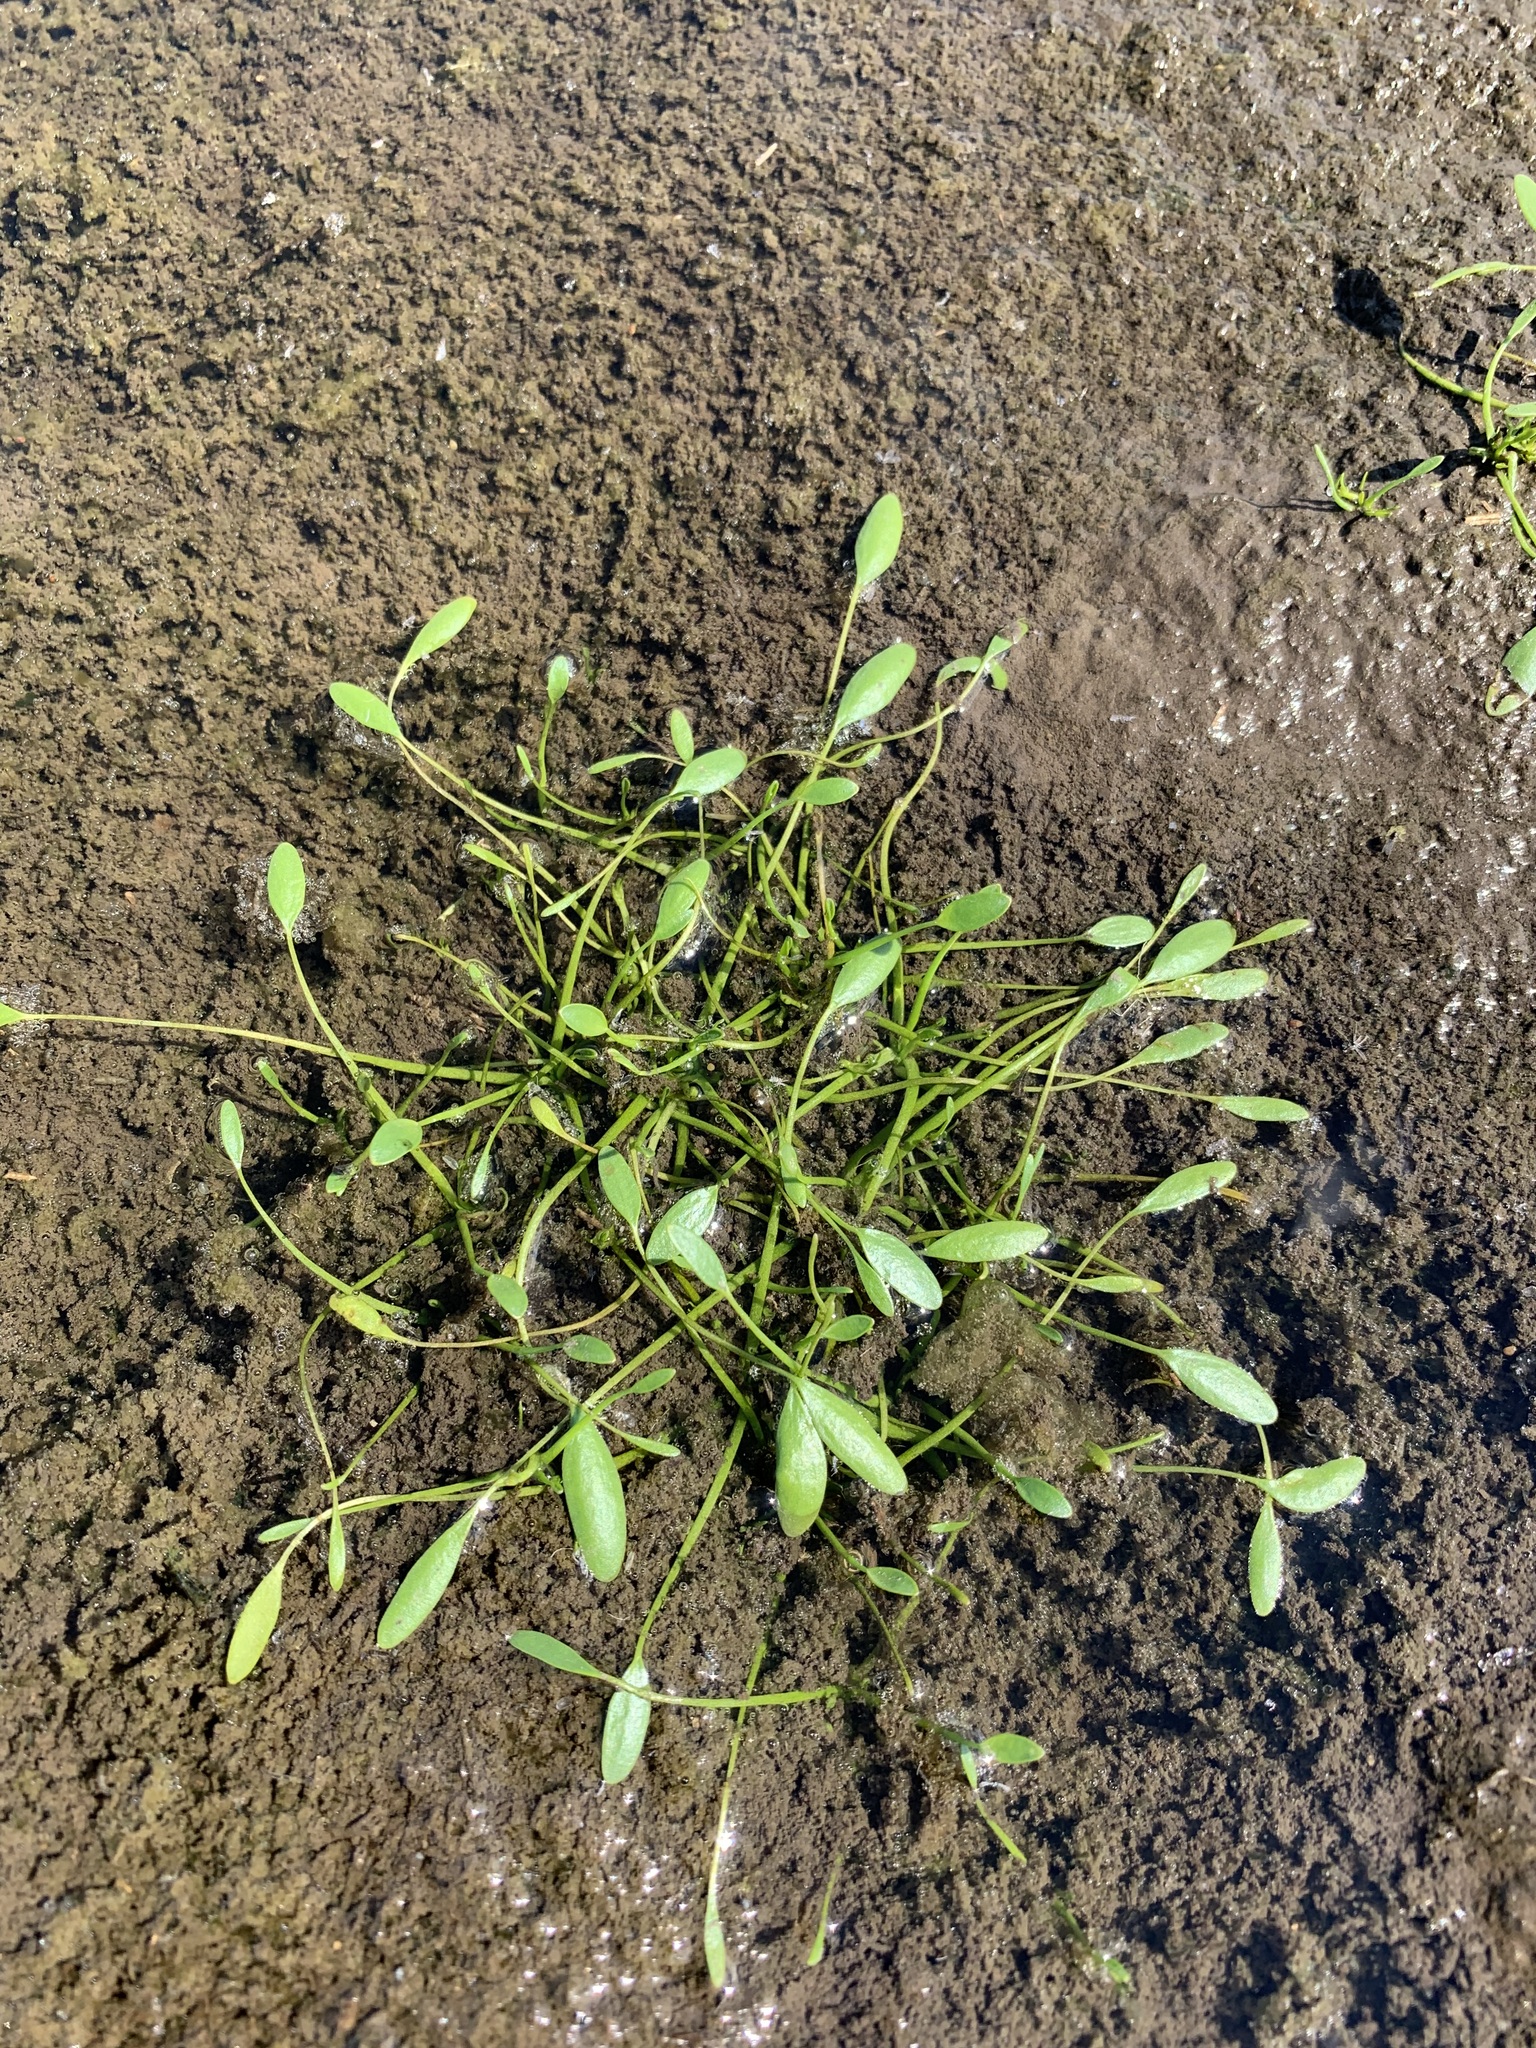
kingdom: Plantae
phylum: Tracheophyta
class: Magnoliopsida
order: Lamiales
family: Scrophulariaceae
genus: Limosella
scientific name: Limosella aquatica
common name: Mudwort
